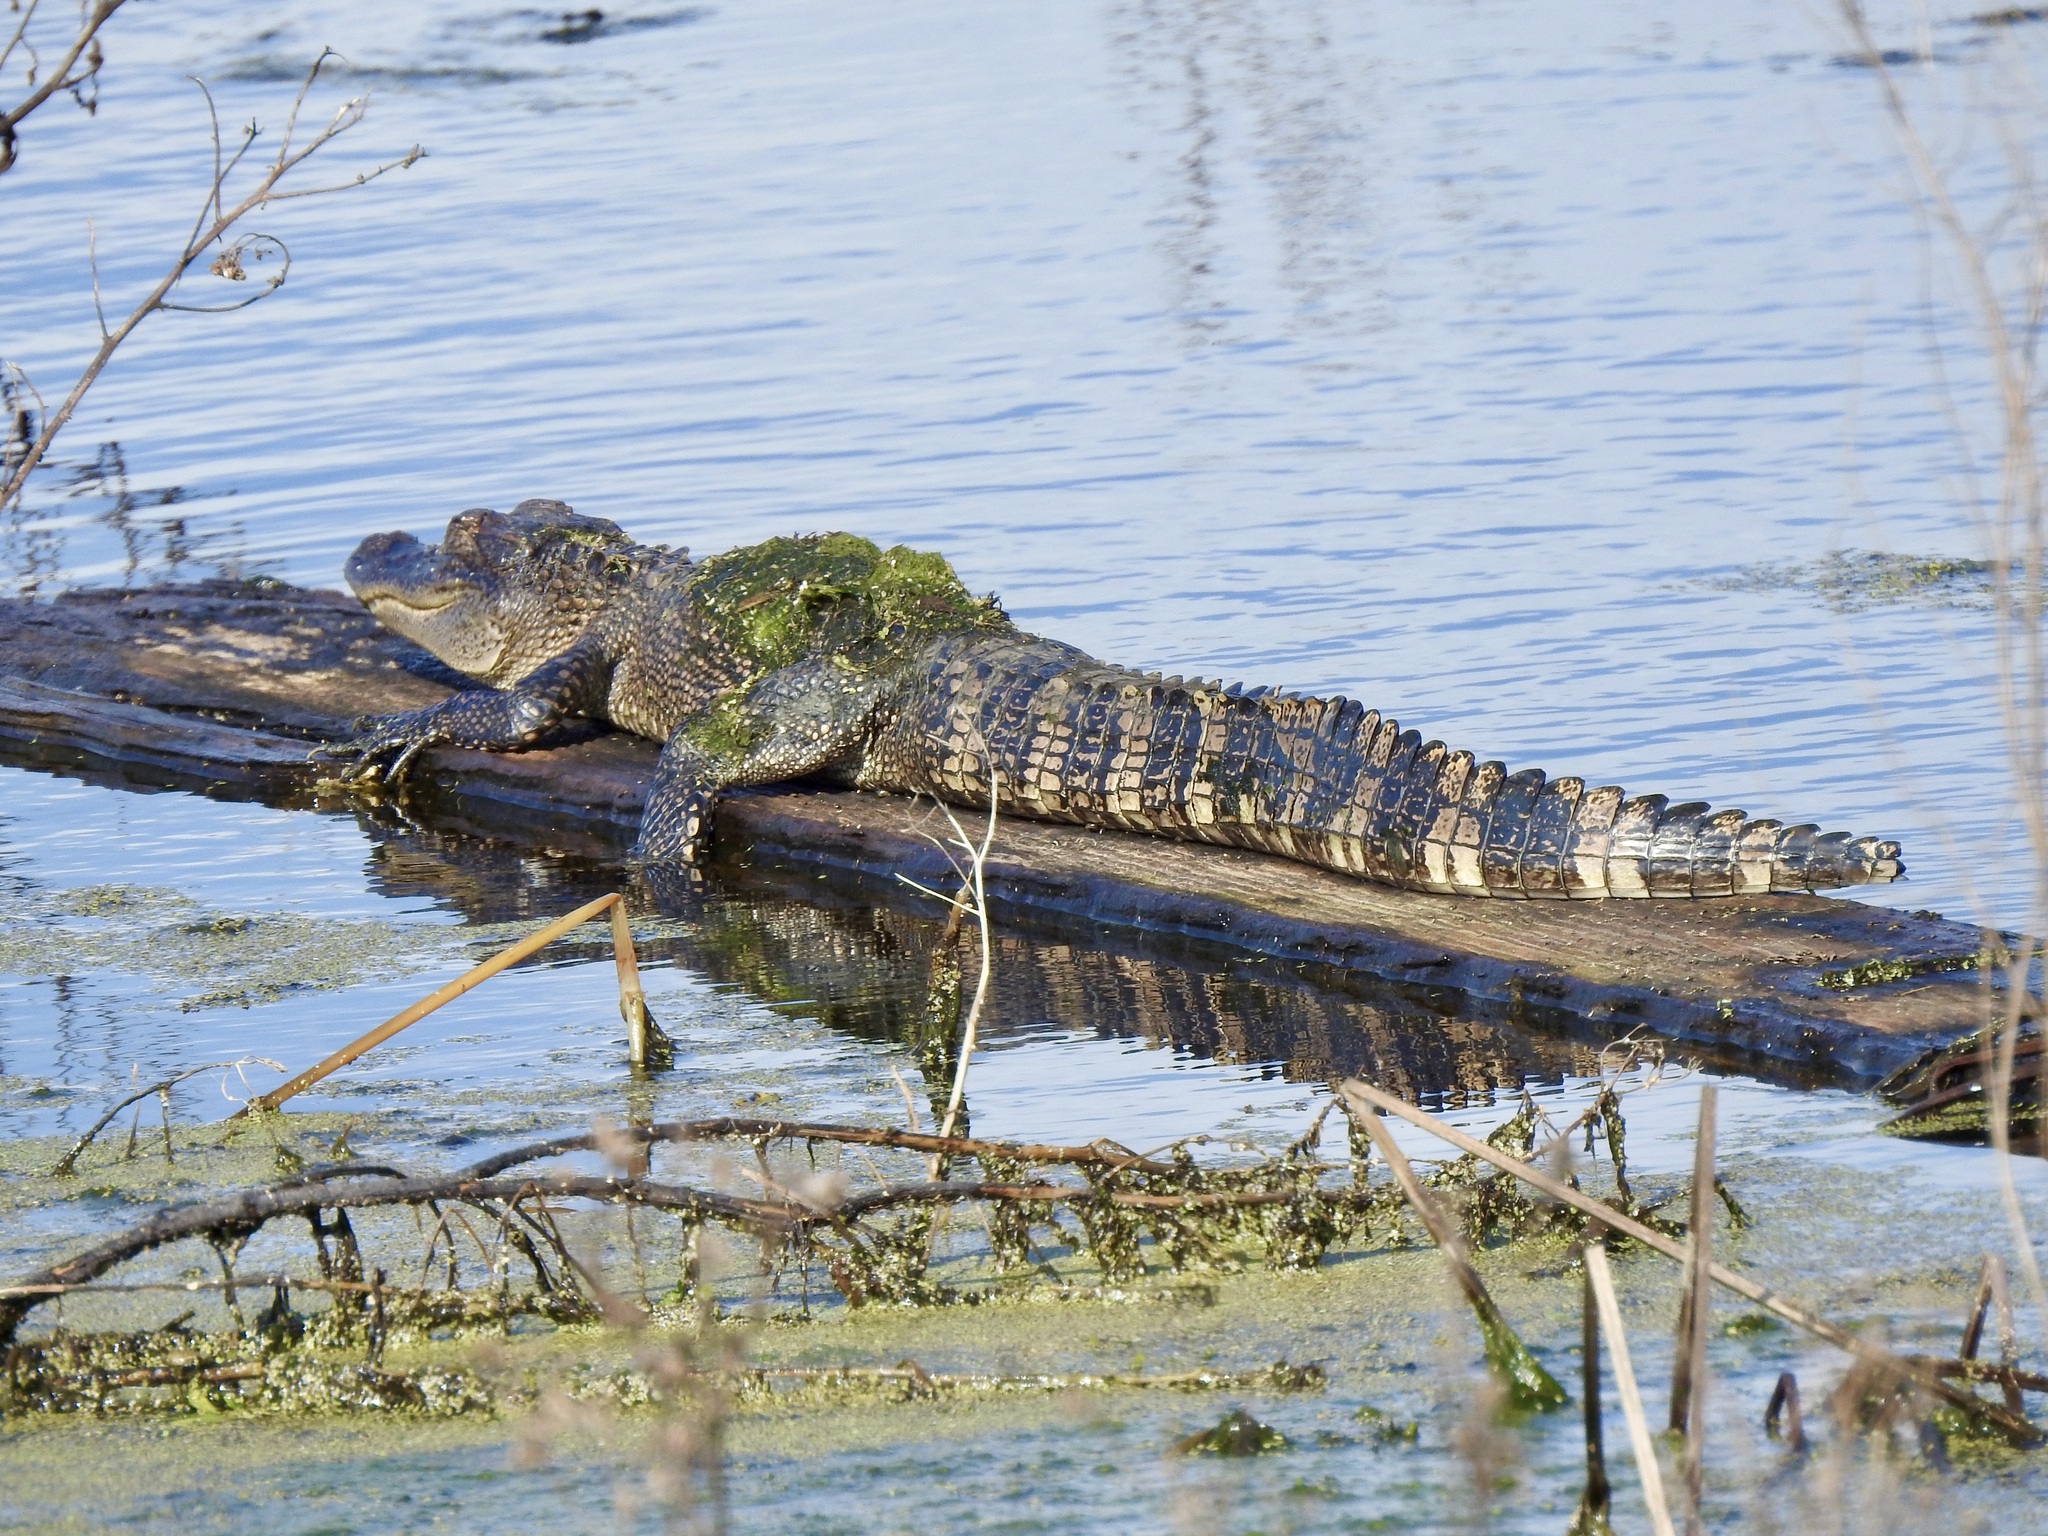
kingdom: Animalia
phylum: Chordata
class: Crocodylia
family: Alligatoridae
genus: Alligator
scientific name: Alligator mississippiensis
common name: American alligator
